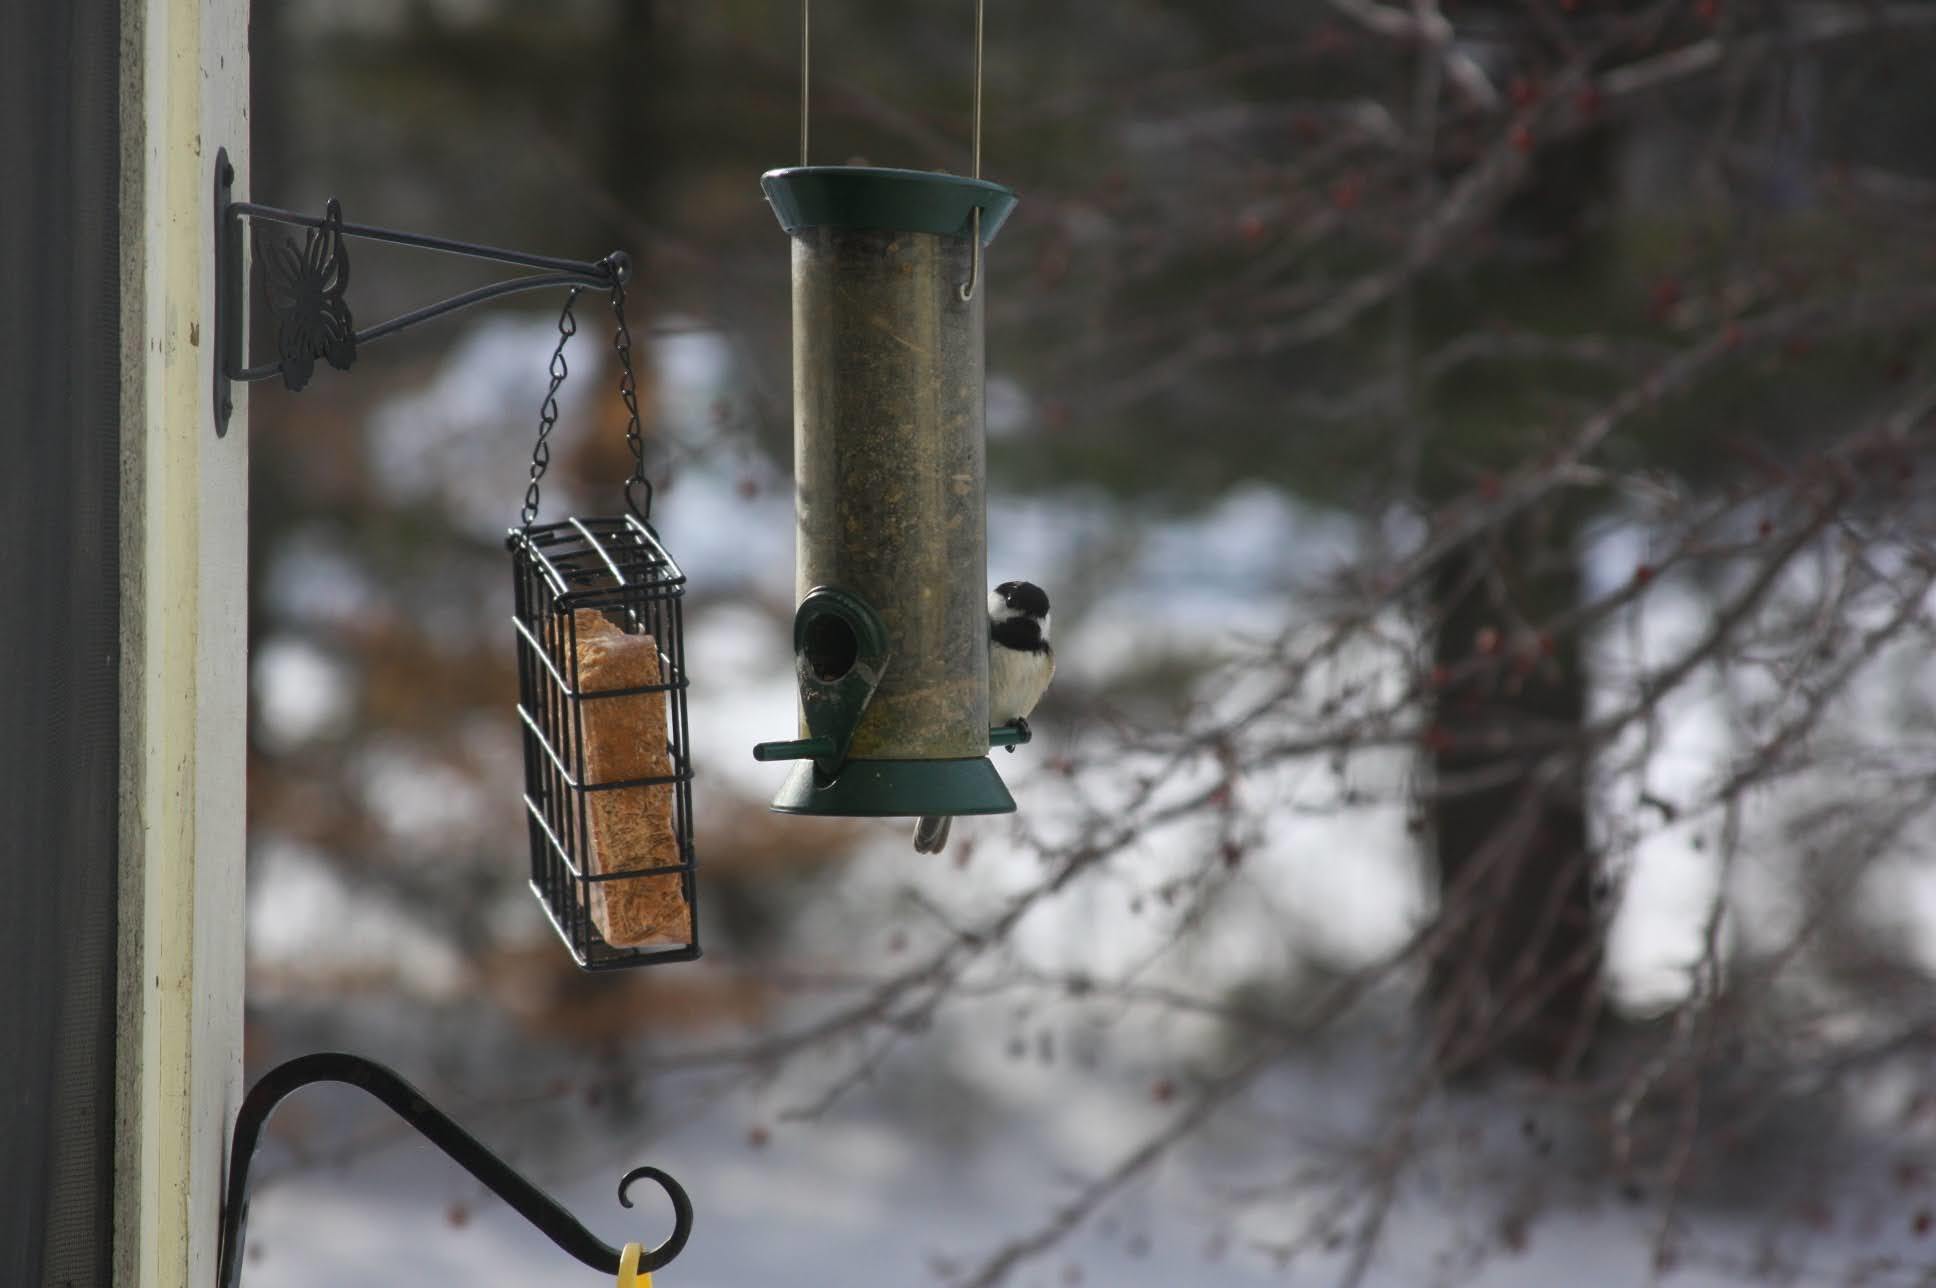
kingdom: Animalia
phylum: Chordata
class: Aves
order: Passeriformes
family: Paridae
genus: Poecile
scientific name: Poecile atricapillus
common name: Black-capped chickadee
